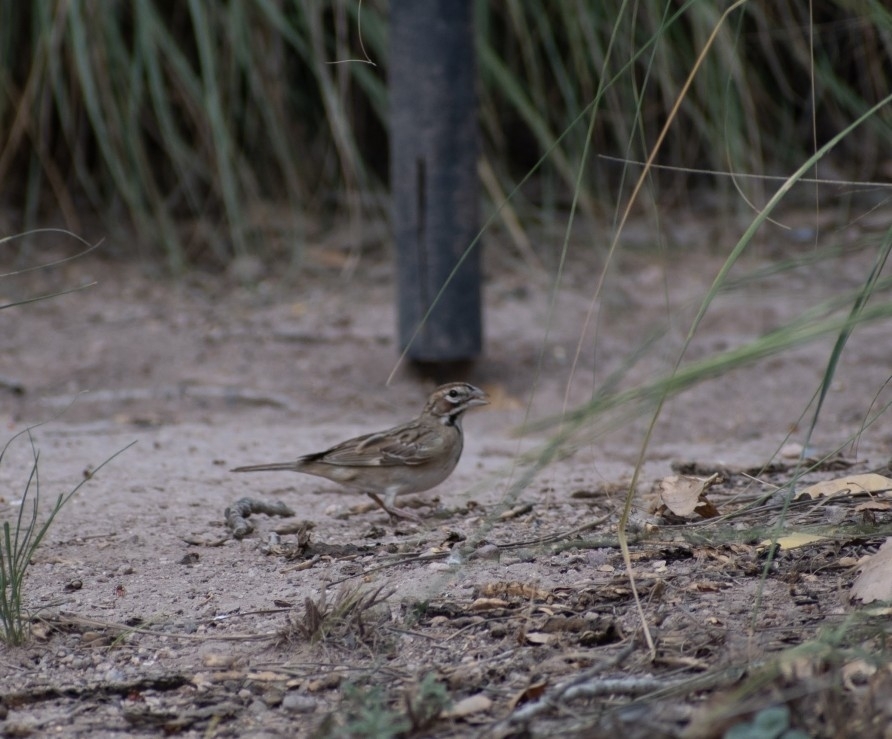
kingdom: Animalia
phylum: Chordata
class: Aves
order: Passeriformes
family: Passerellidae
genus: Chondestes
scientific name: Chondestes grammacus
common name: Lark sparrow
